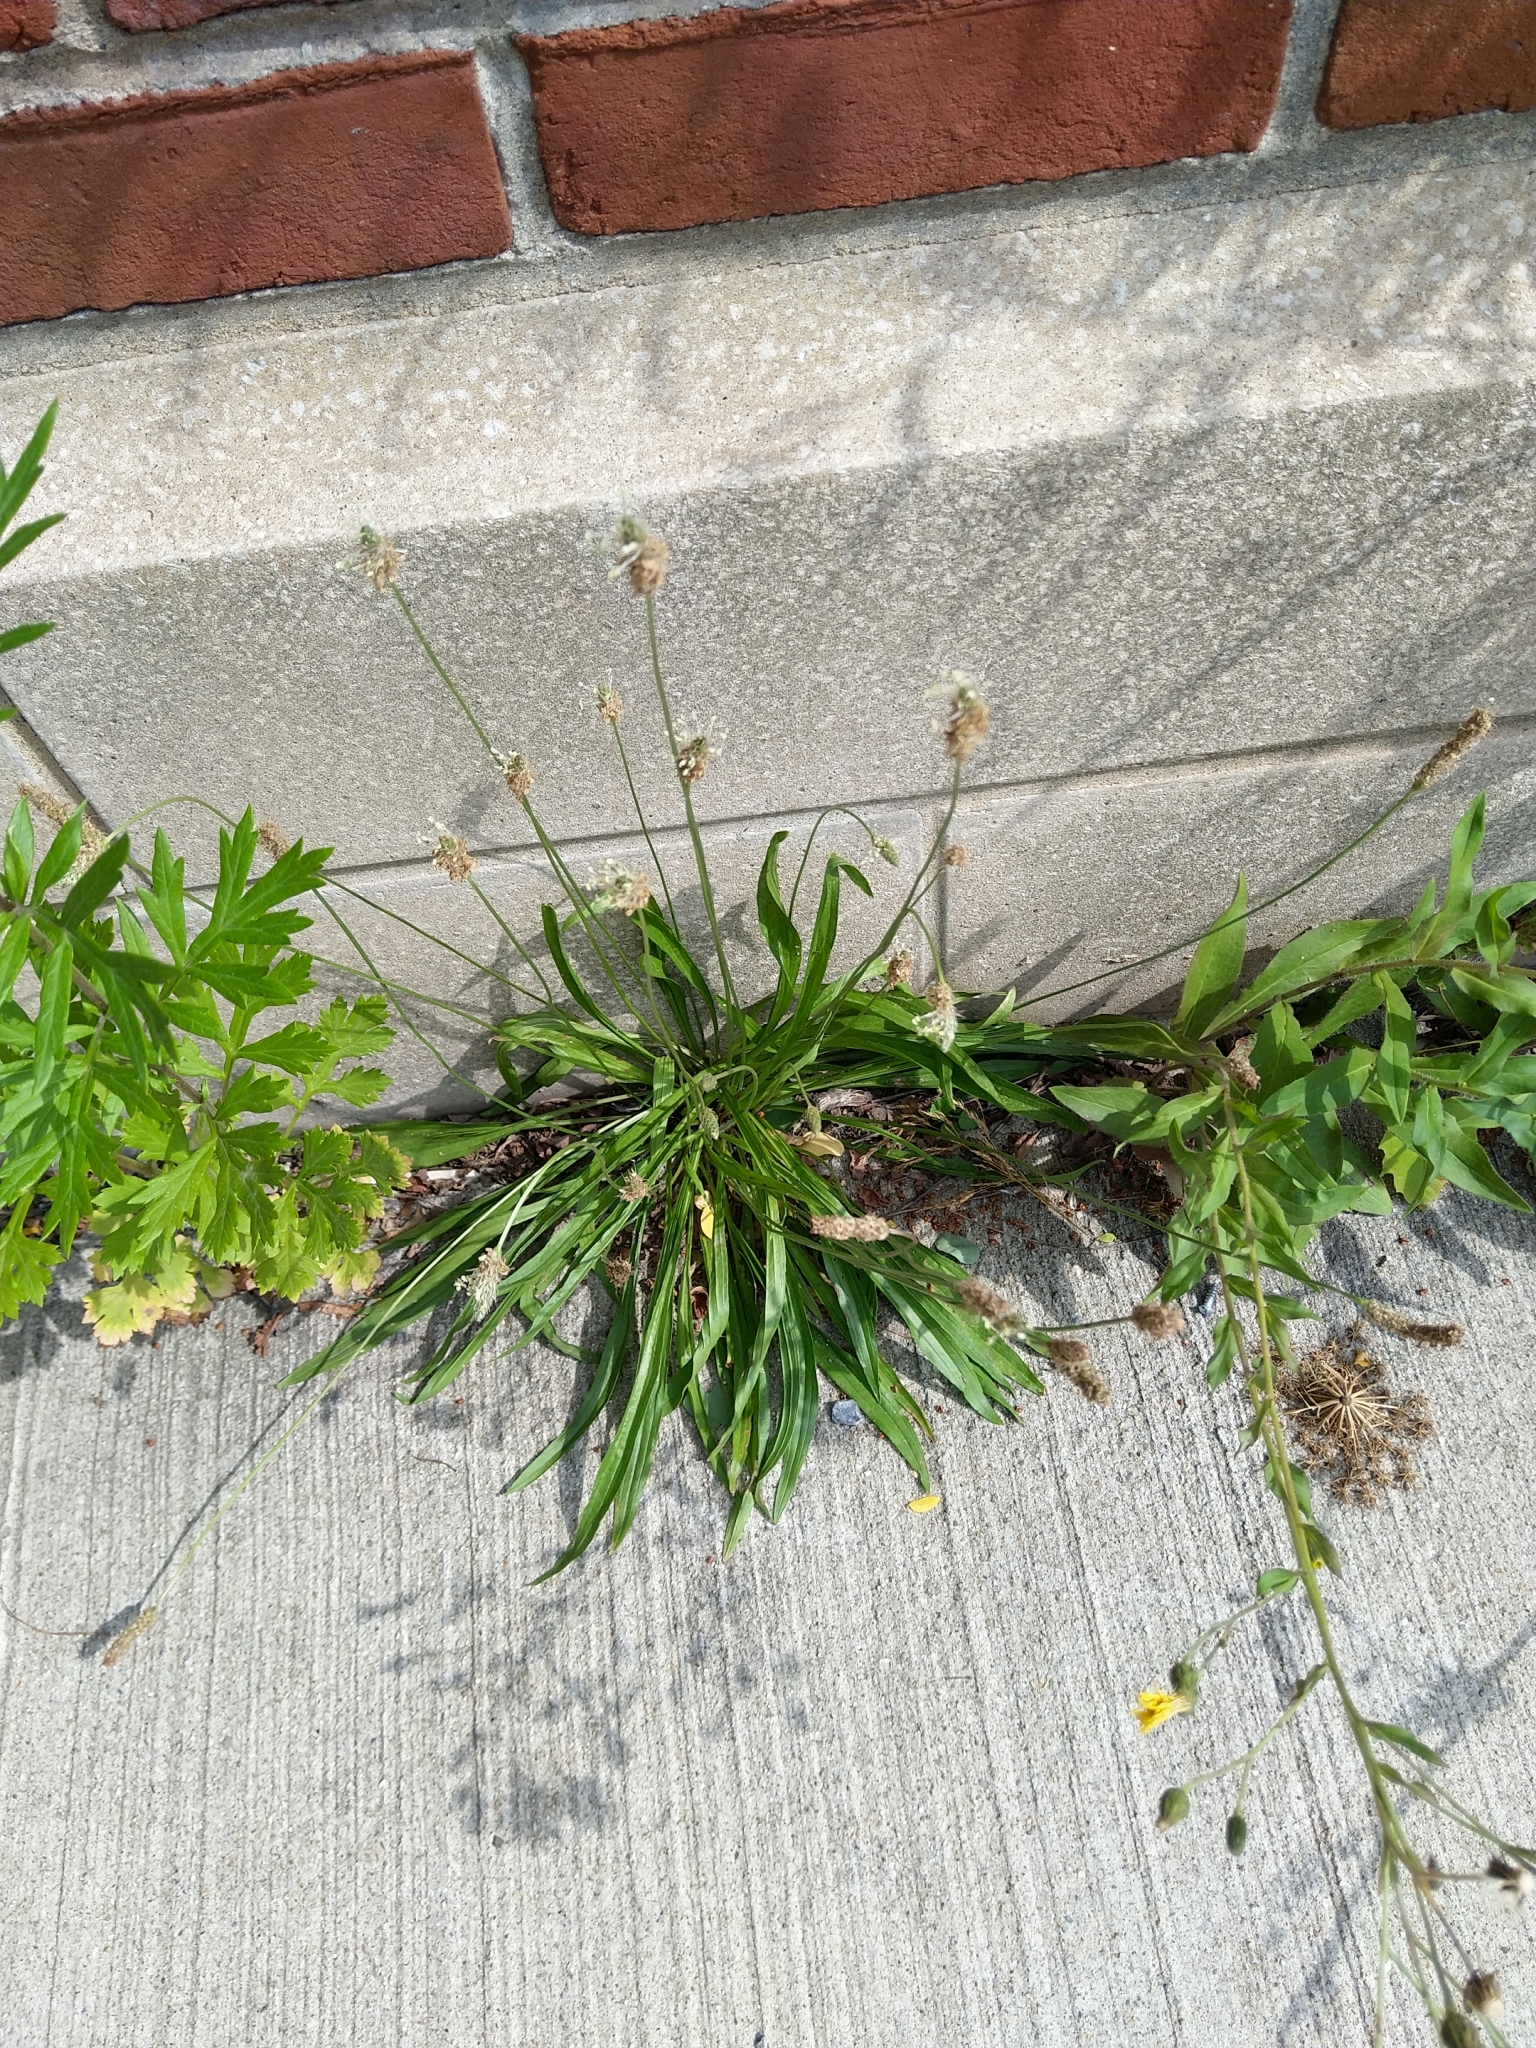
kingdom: Plantae
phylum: Tracheophyta
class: Magnoliopsida
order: Lamiales
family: Plantaginaceae
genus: Plantago
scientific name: Plantago lanceolata
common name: Ribwort plantain
